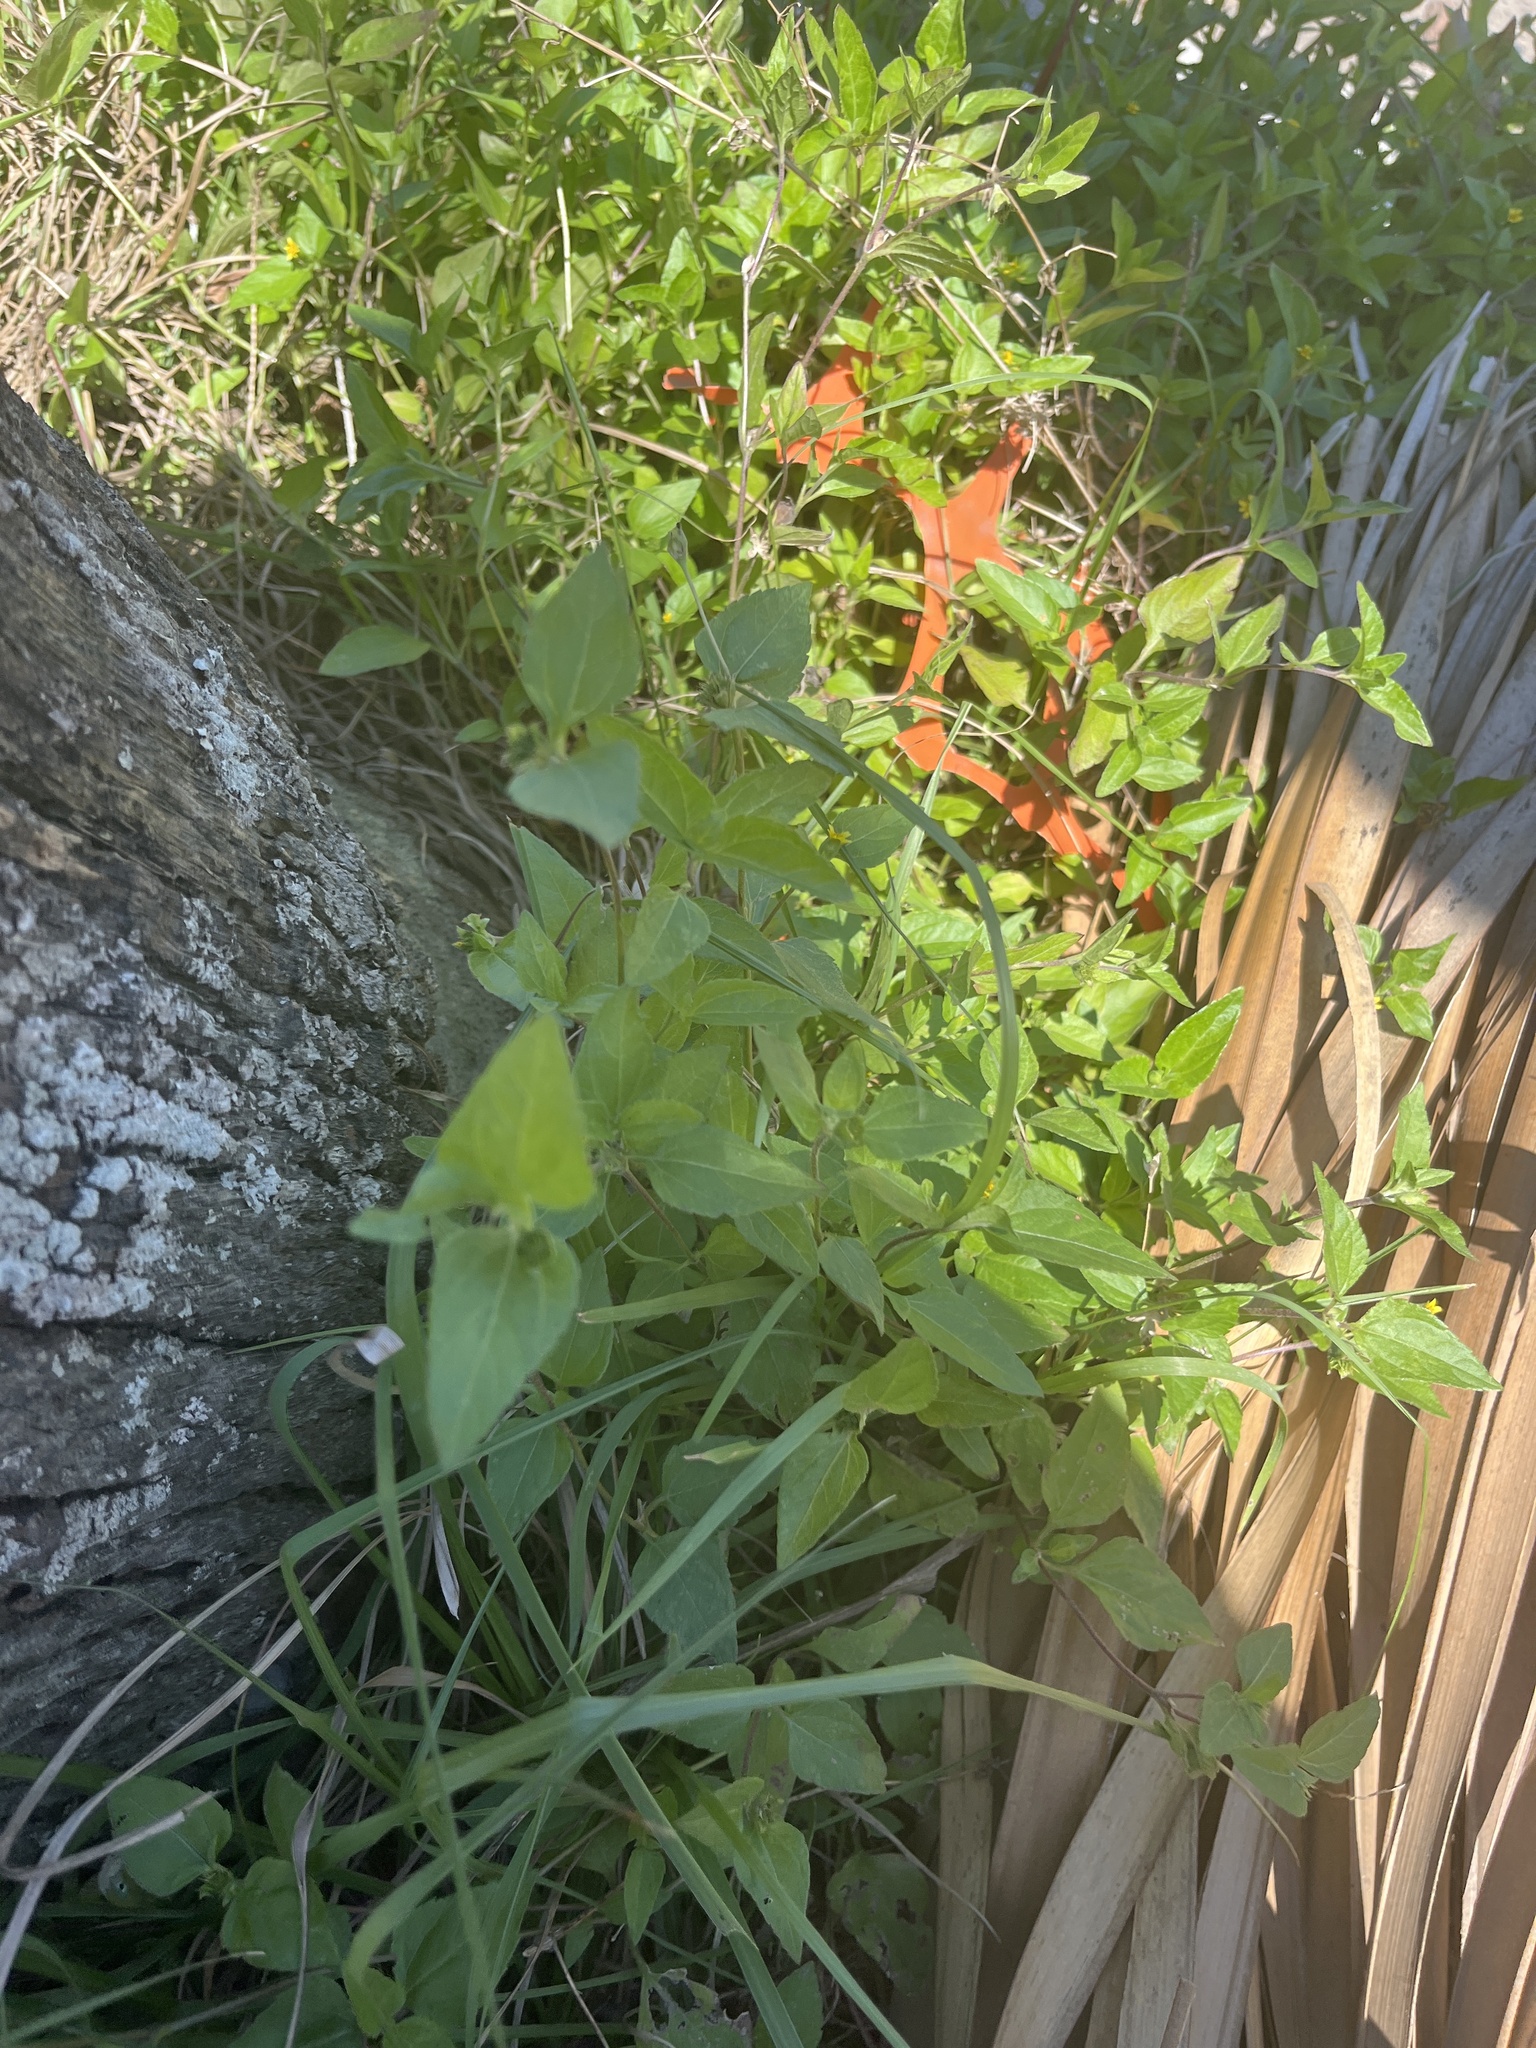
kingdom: Plantae
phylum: Tracheophyta
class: Magnoliopsida
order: Asterales
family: Asteraceae
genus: Synedrella
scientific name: Synedrella nodiflora
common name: Nodeweed
